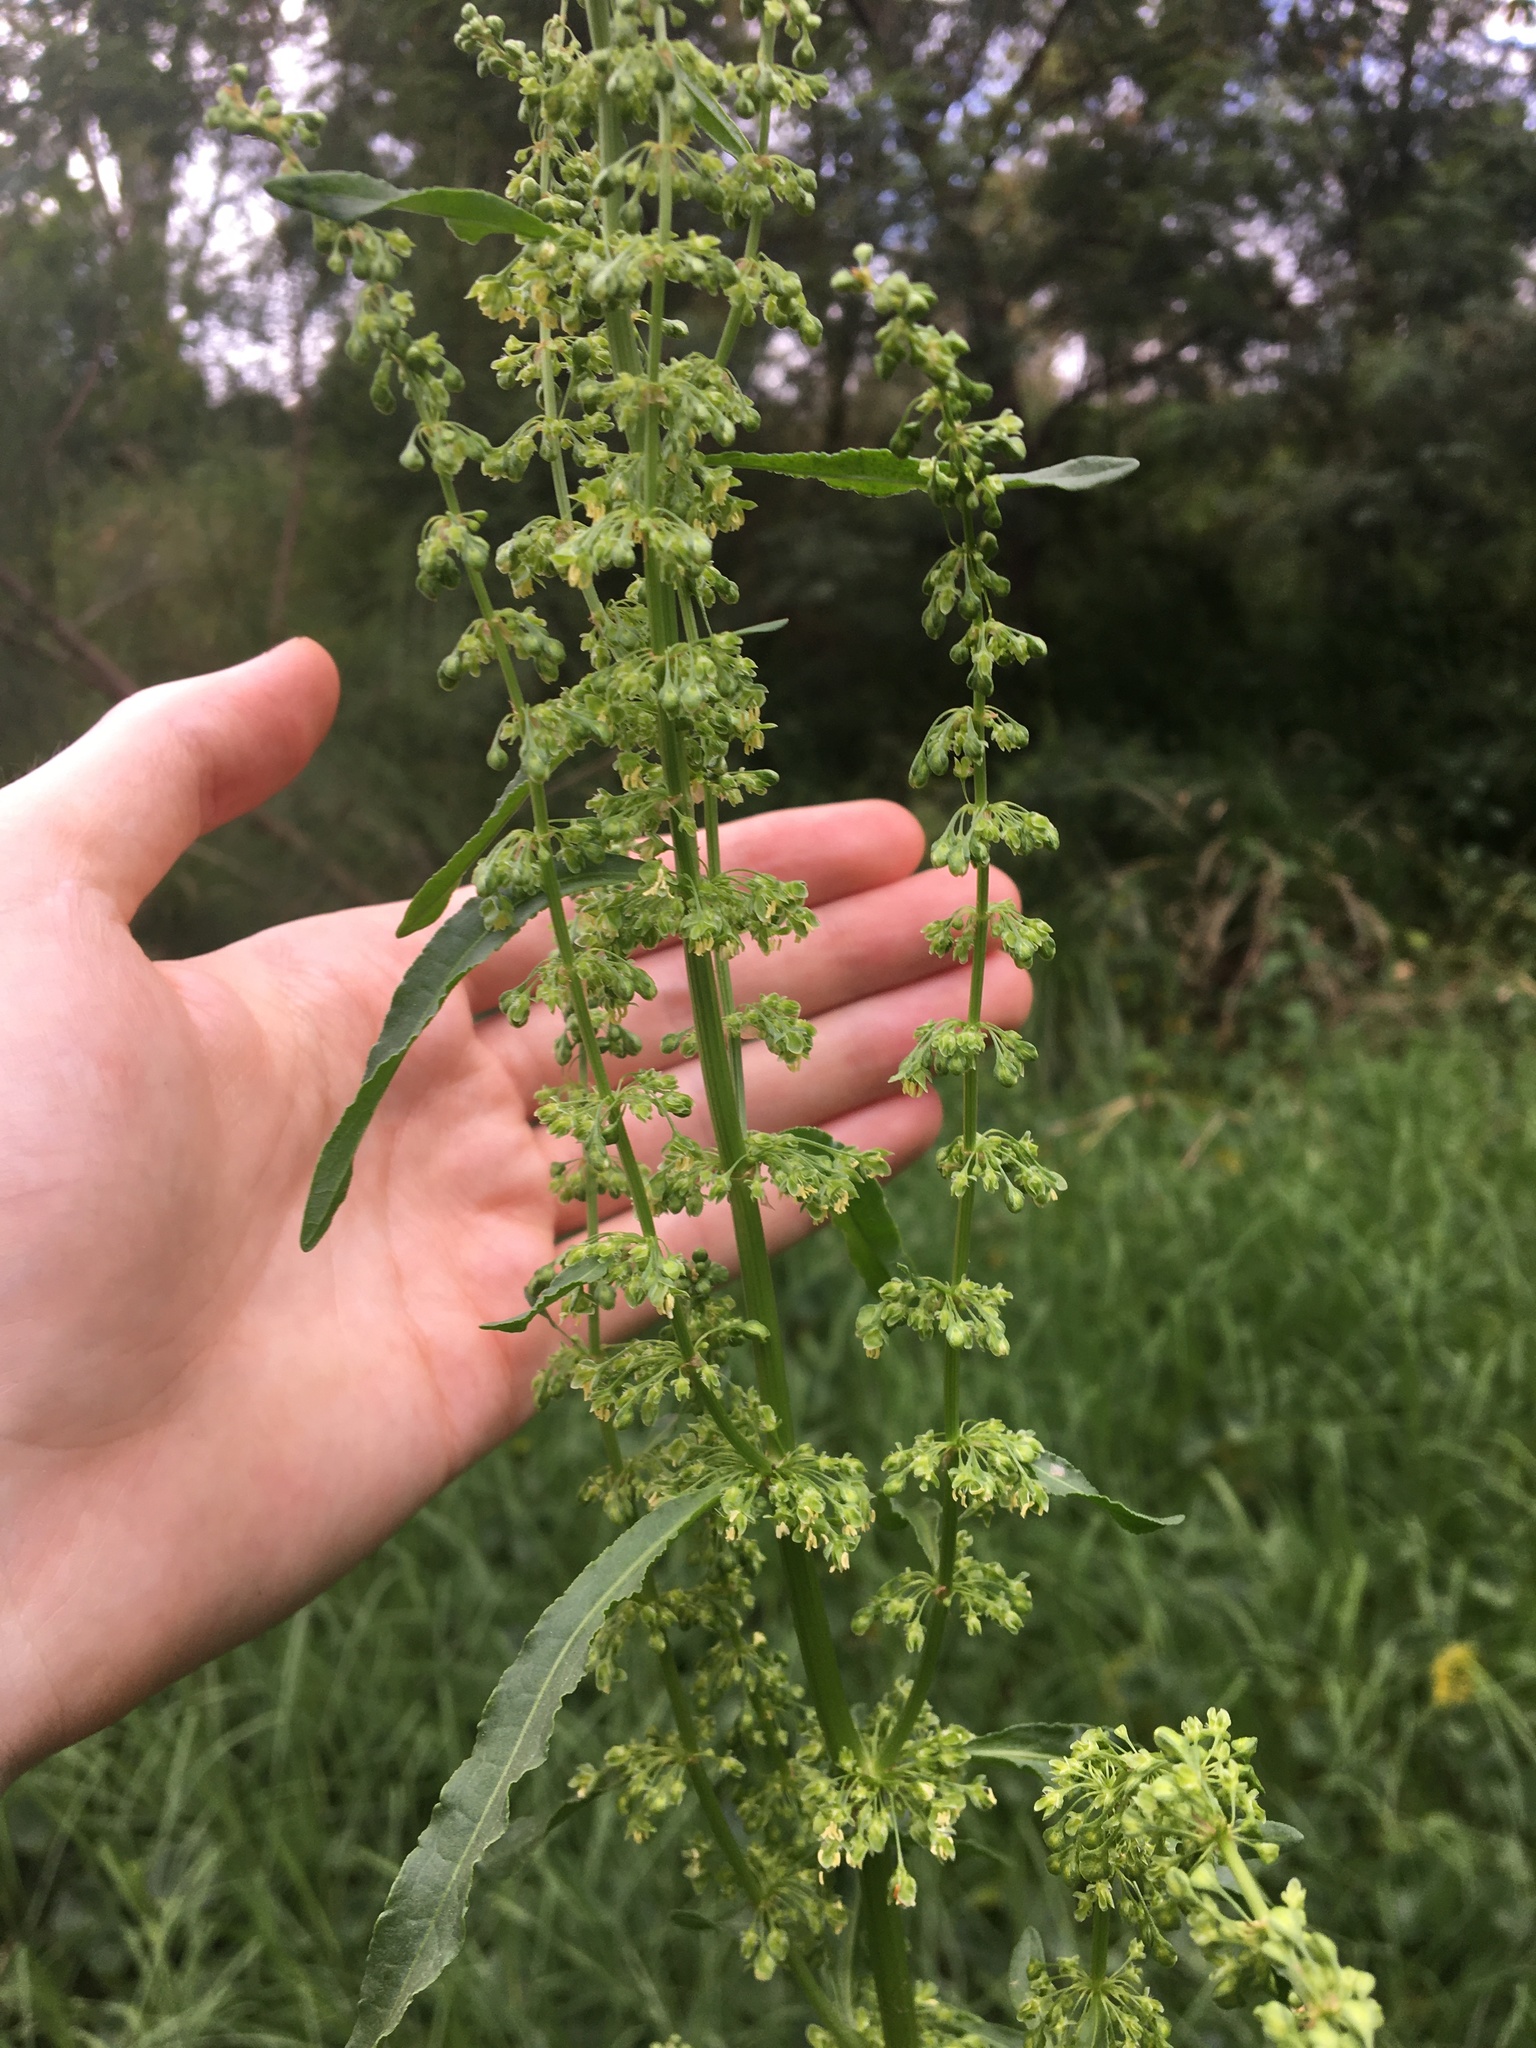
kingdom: Plantae
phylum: Tracheophyta
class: Magnoliopsida
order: Caryophyllales
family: Polygonaceae
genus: Rumex
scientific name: Rumex crispus
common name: Curled dock
